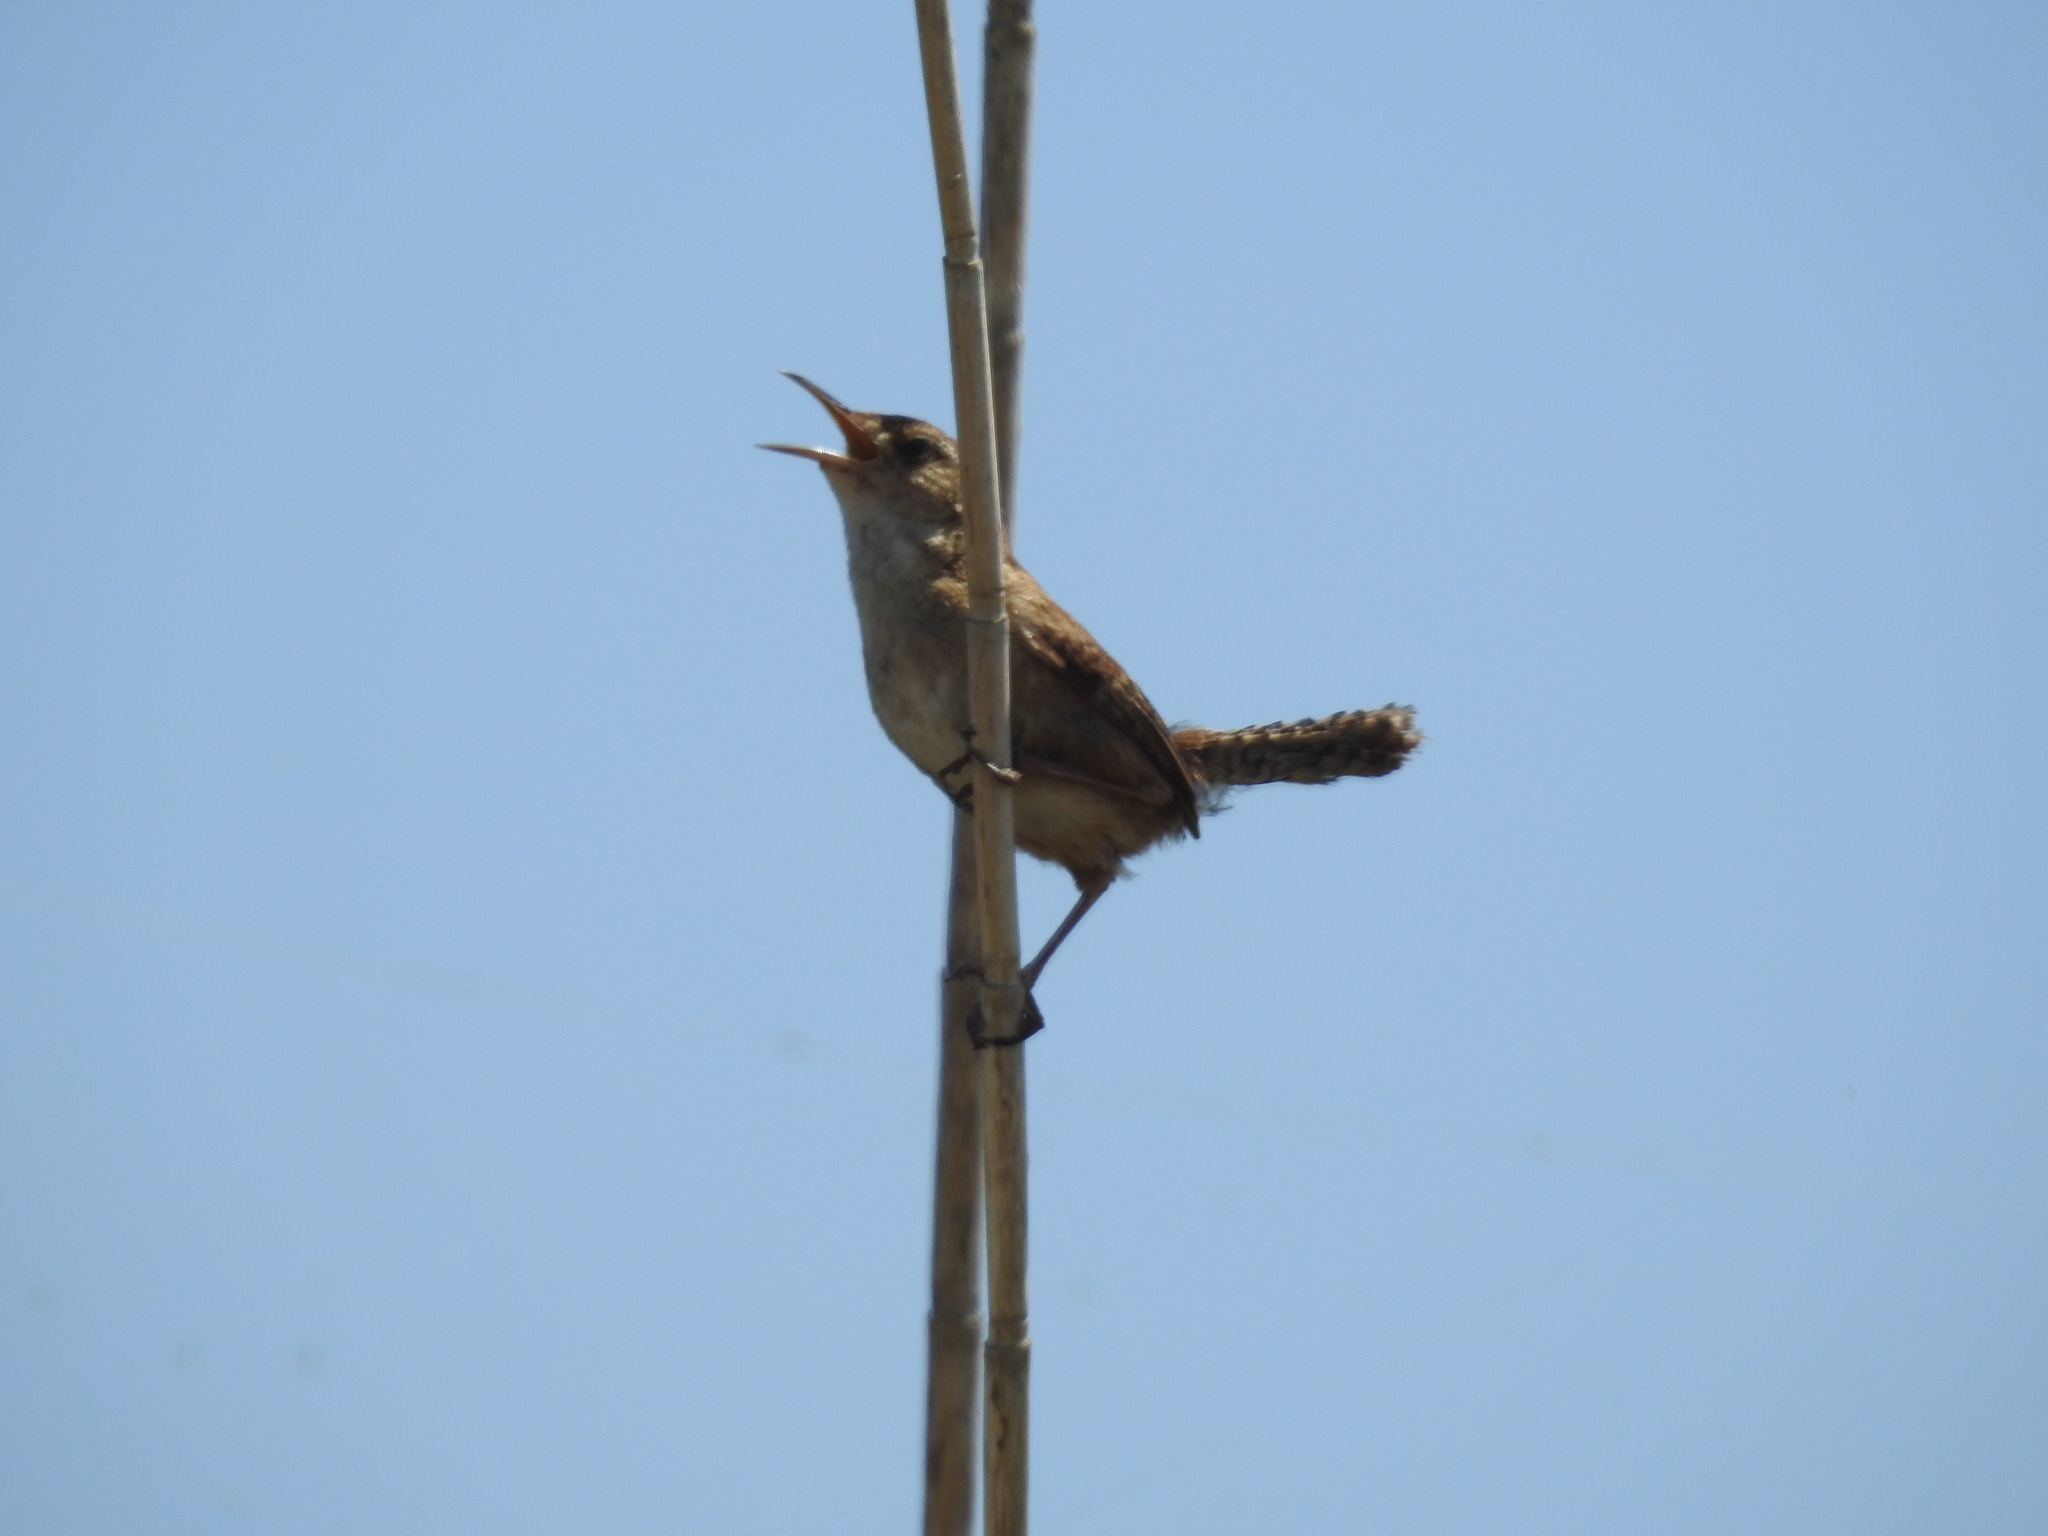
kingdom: Animalia
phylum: Chordata
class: Aves
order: Passeriformes
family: Troglodytidae
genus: Troglodytes
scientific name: Troglodytes aedon
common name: House wren
